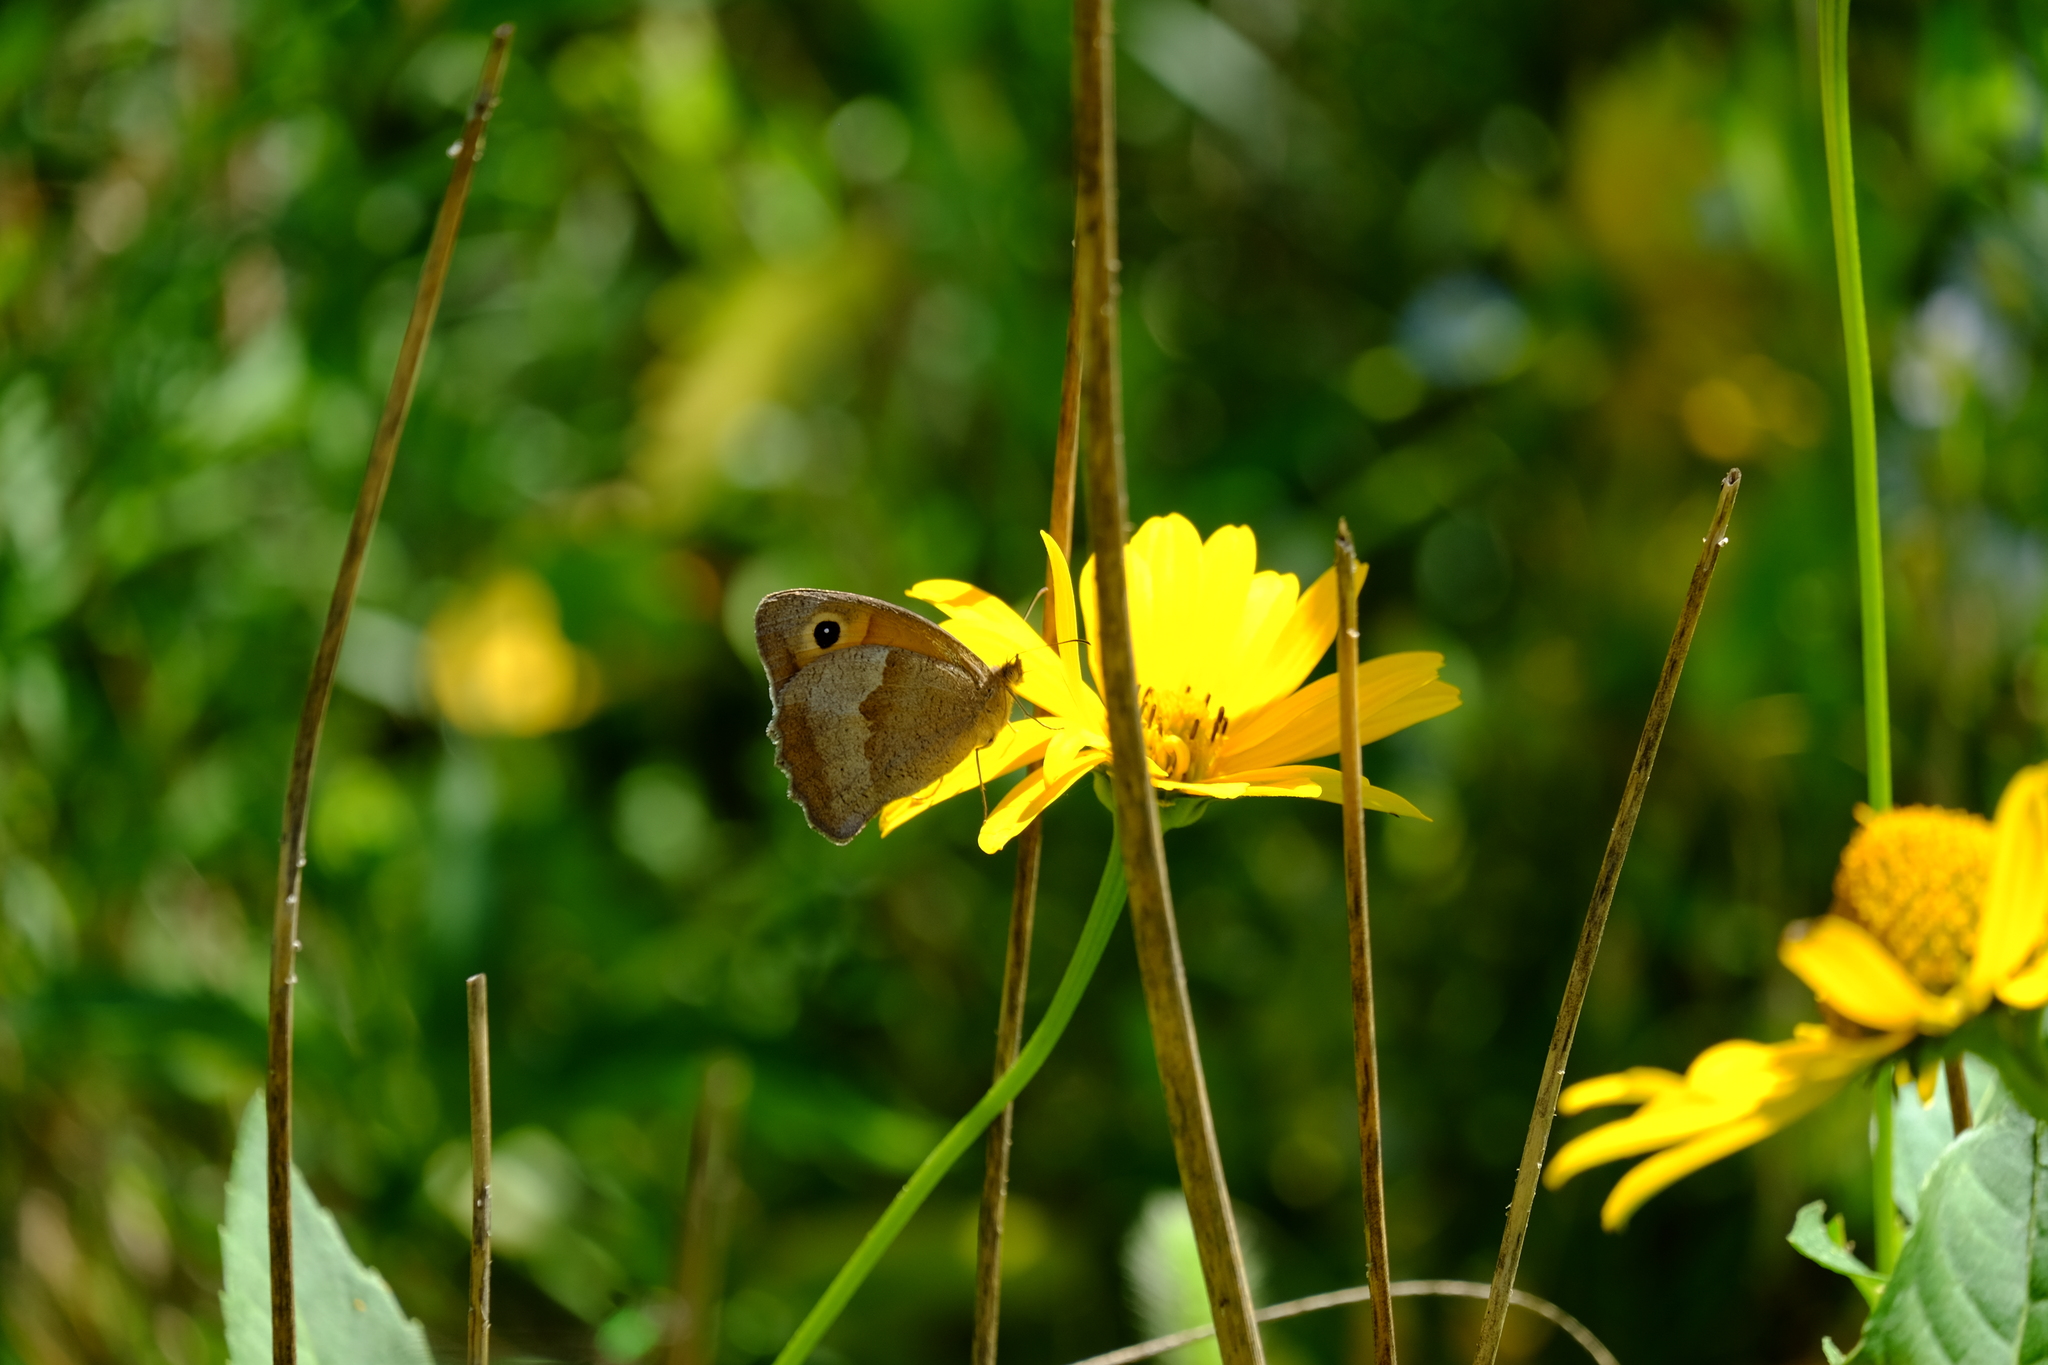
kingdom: Animalia
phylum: Arthropoda
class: Insecta
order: Lepidoptera
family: Nymphalidae
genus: Maniola
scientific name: Maniola jurtina
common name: Meadow brown
